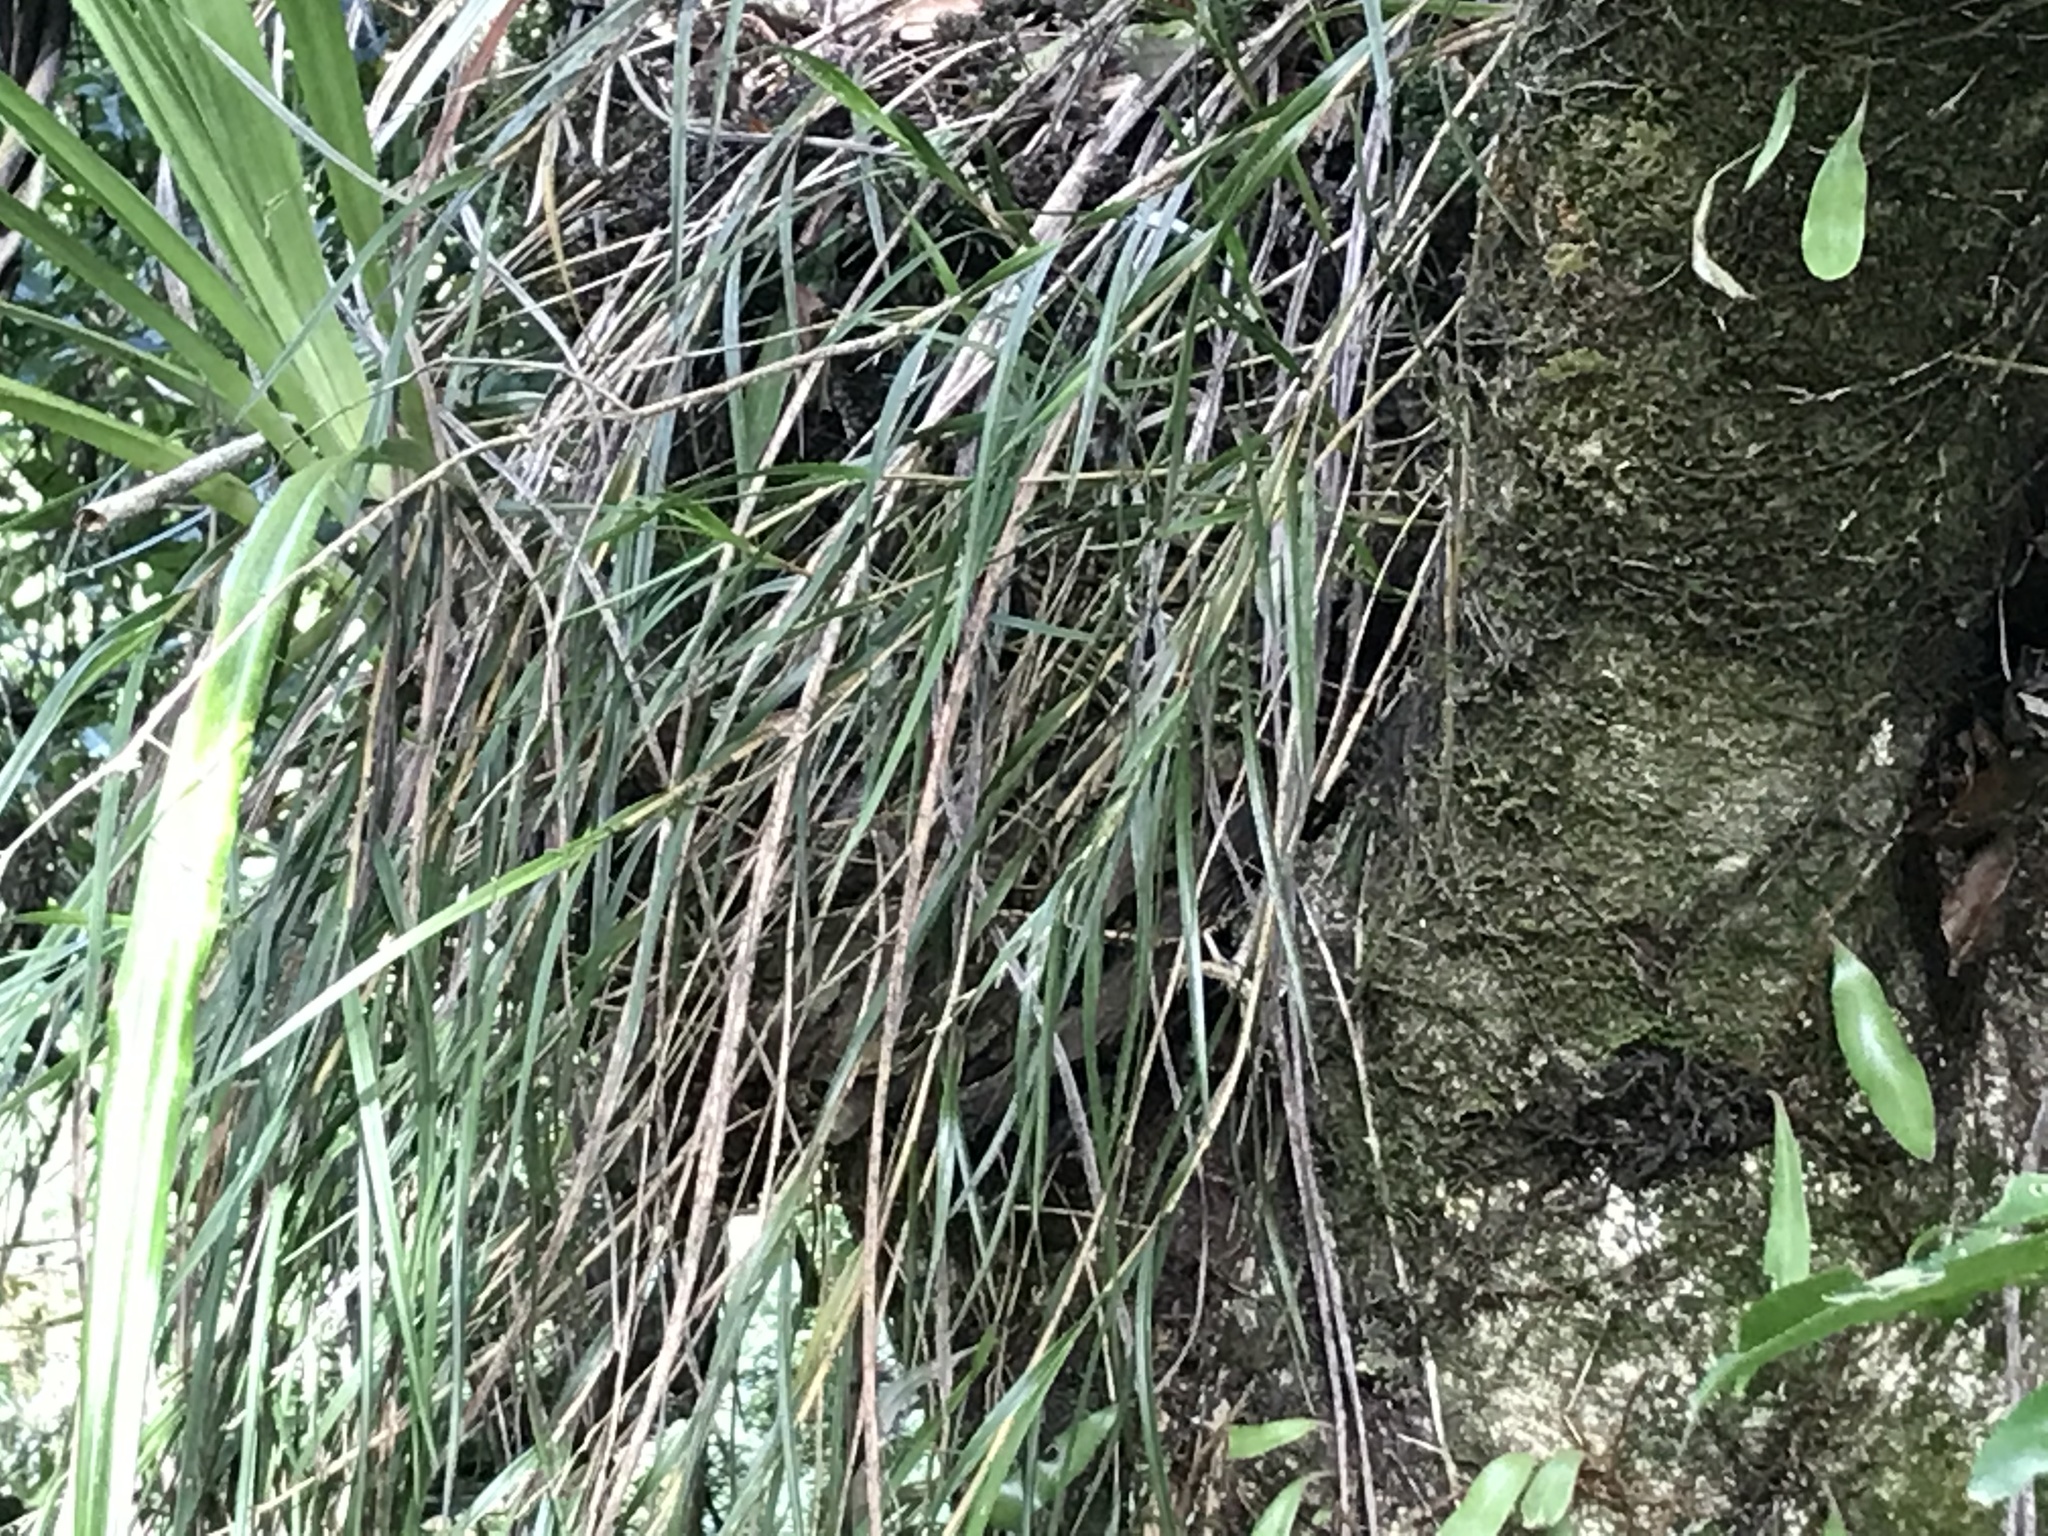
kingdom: Plantae
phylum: Tracheophyta
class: Liliopsida
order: Asparagales
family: Orchidaceae
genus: Earina
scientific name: Earina mucronata
